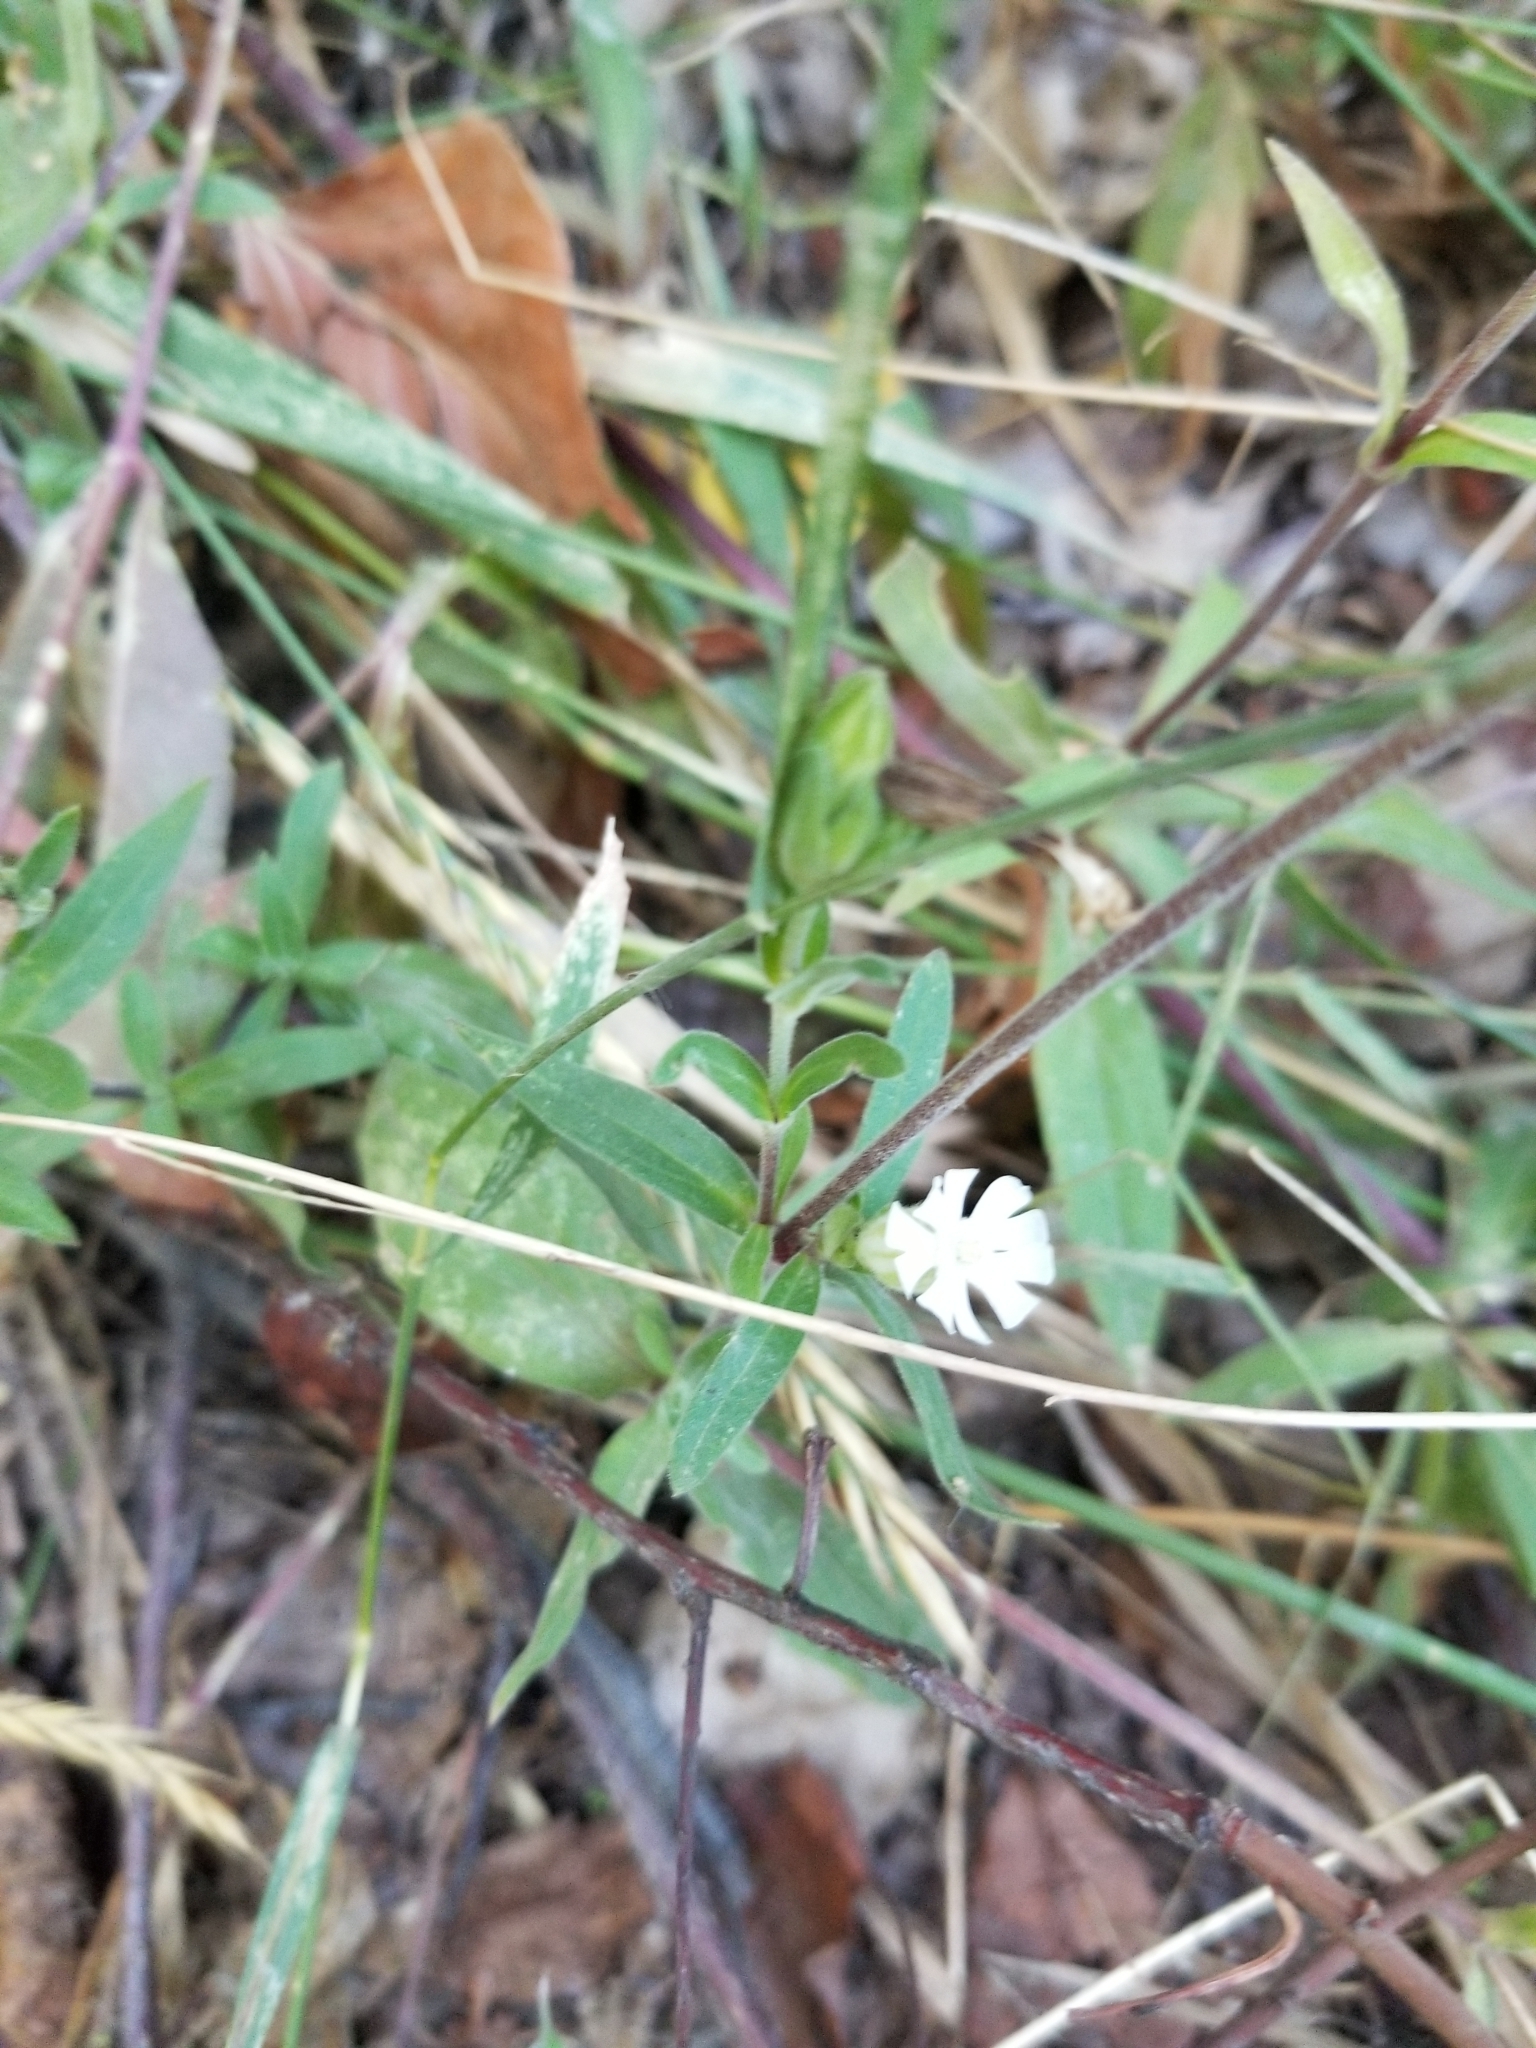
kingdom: Plantae
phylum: Tracheophyta
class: Magnoliopsida
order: Caryophyllales
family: Caryophyllaceae
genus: Silene
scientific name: Silene latifolia
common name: White campion
